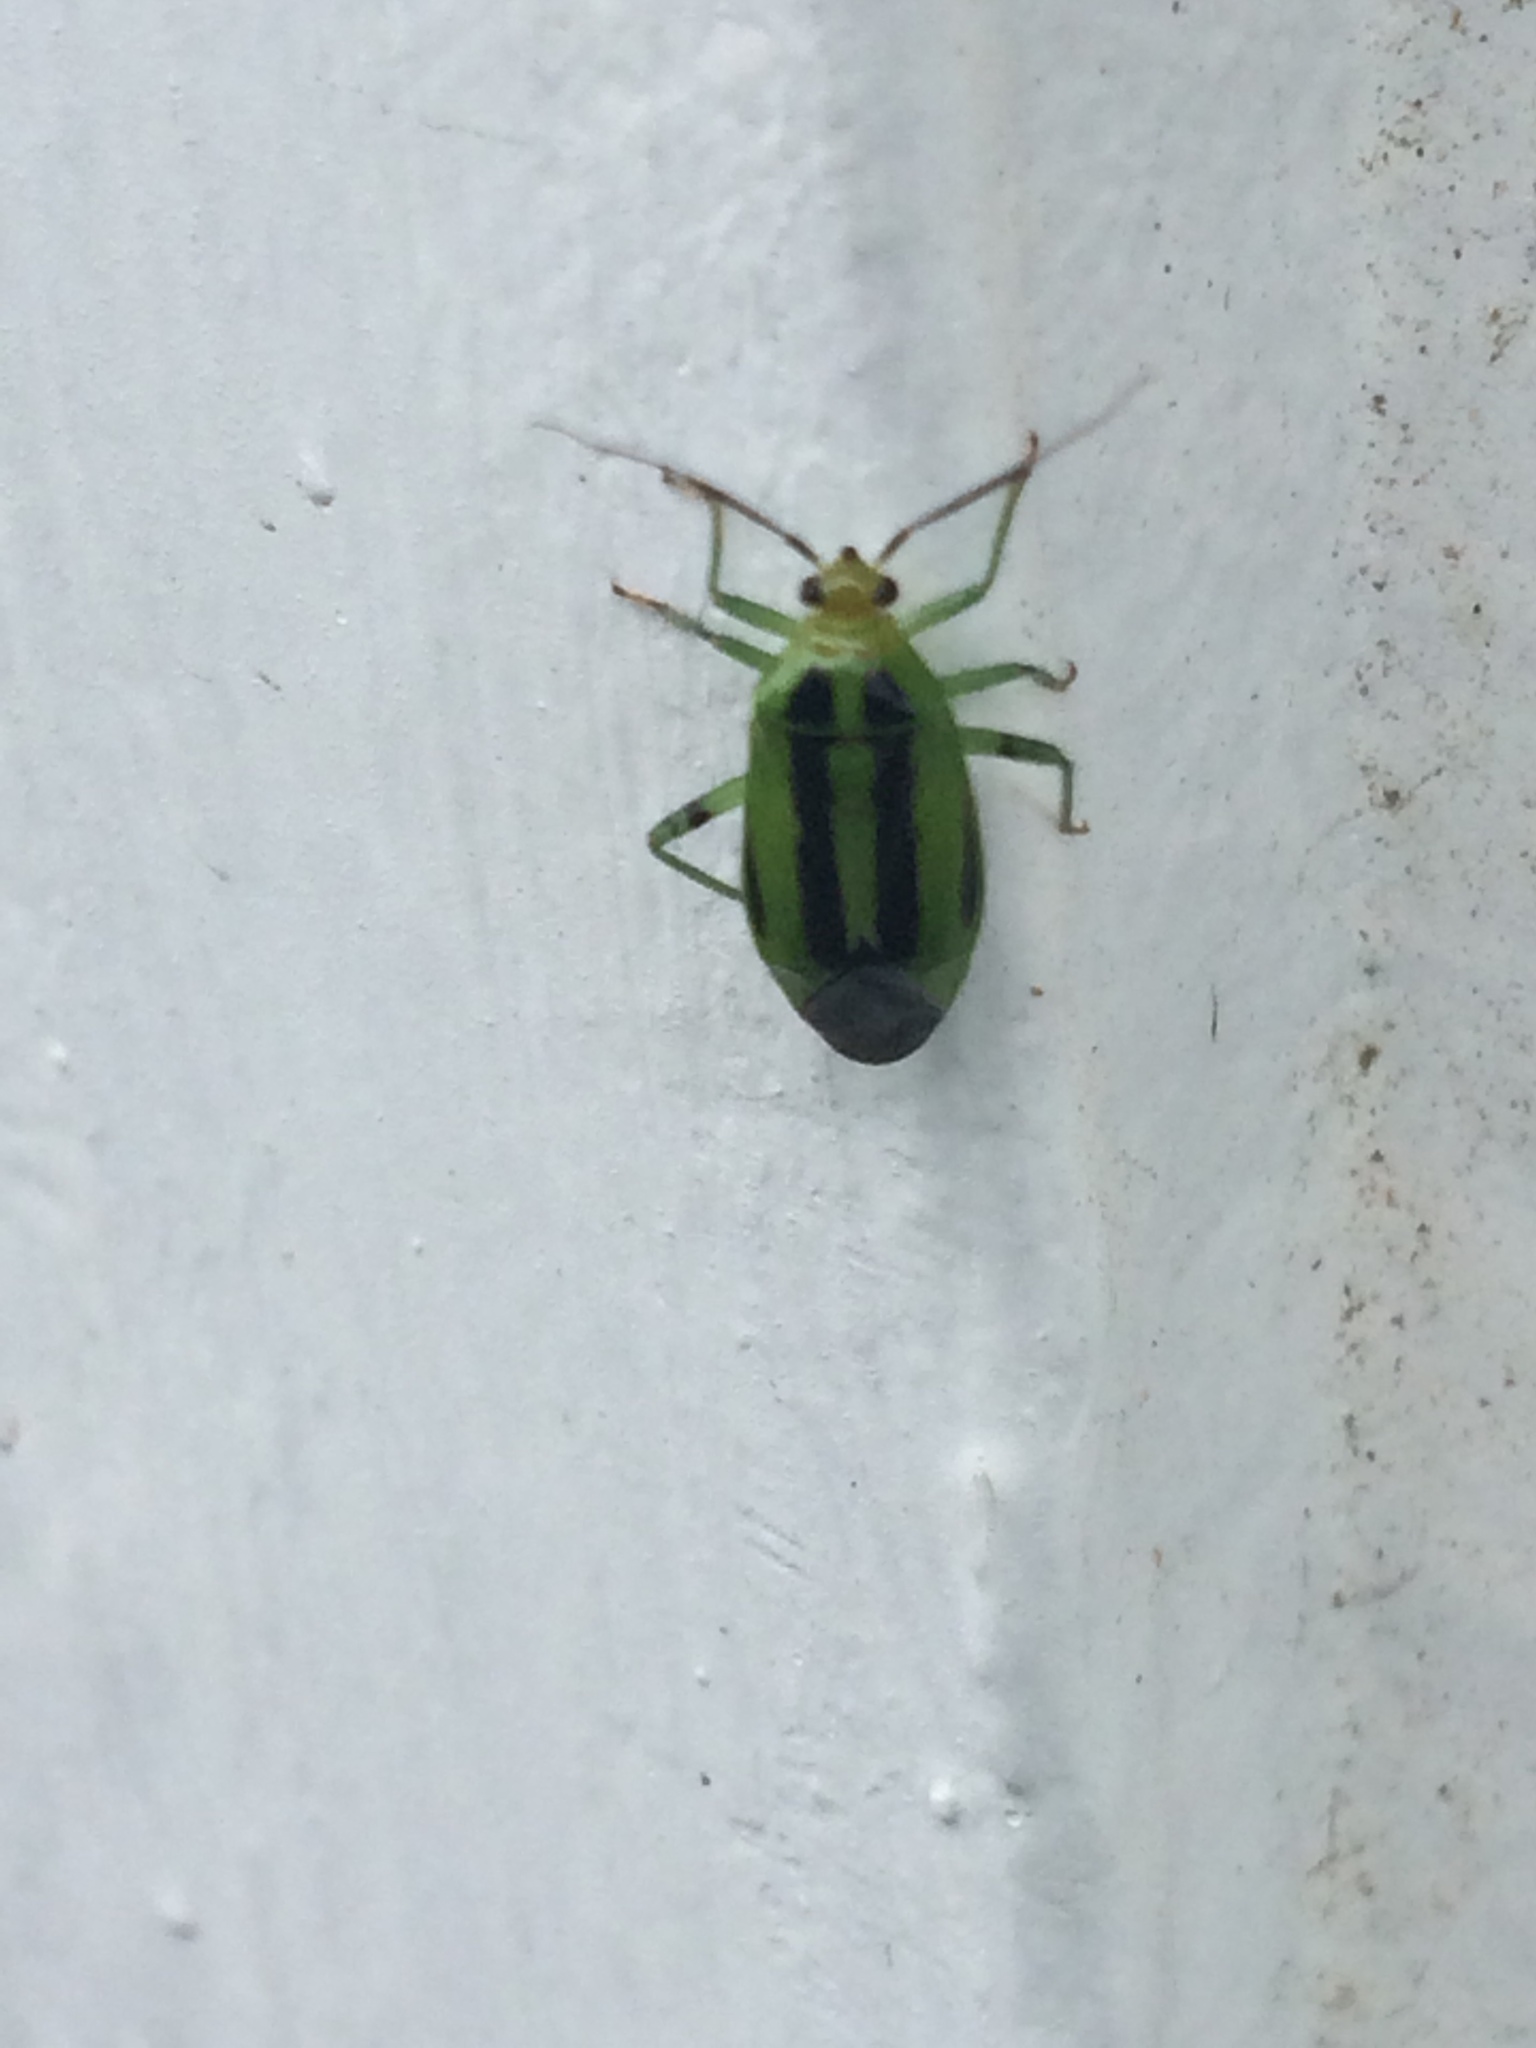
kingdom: Animalia
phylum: Arthropoda
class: Insecta
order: Hemiptera
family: Miridae
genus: Poecilocapsus
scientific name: Poecilocapsus lineatus
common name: Four-lined plant bug
